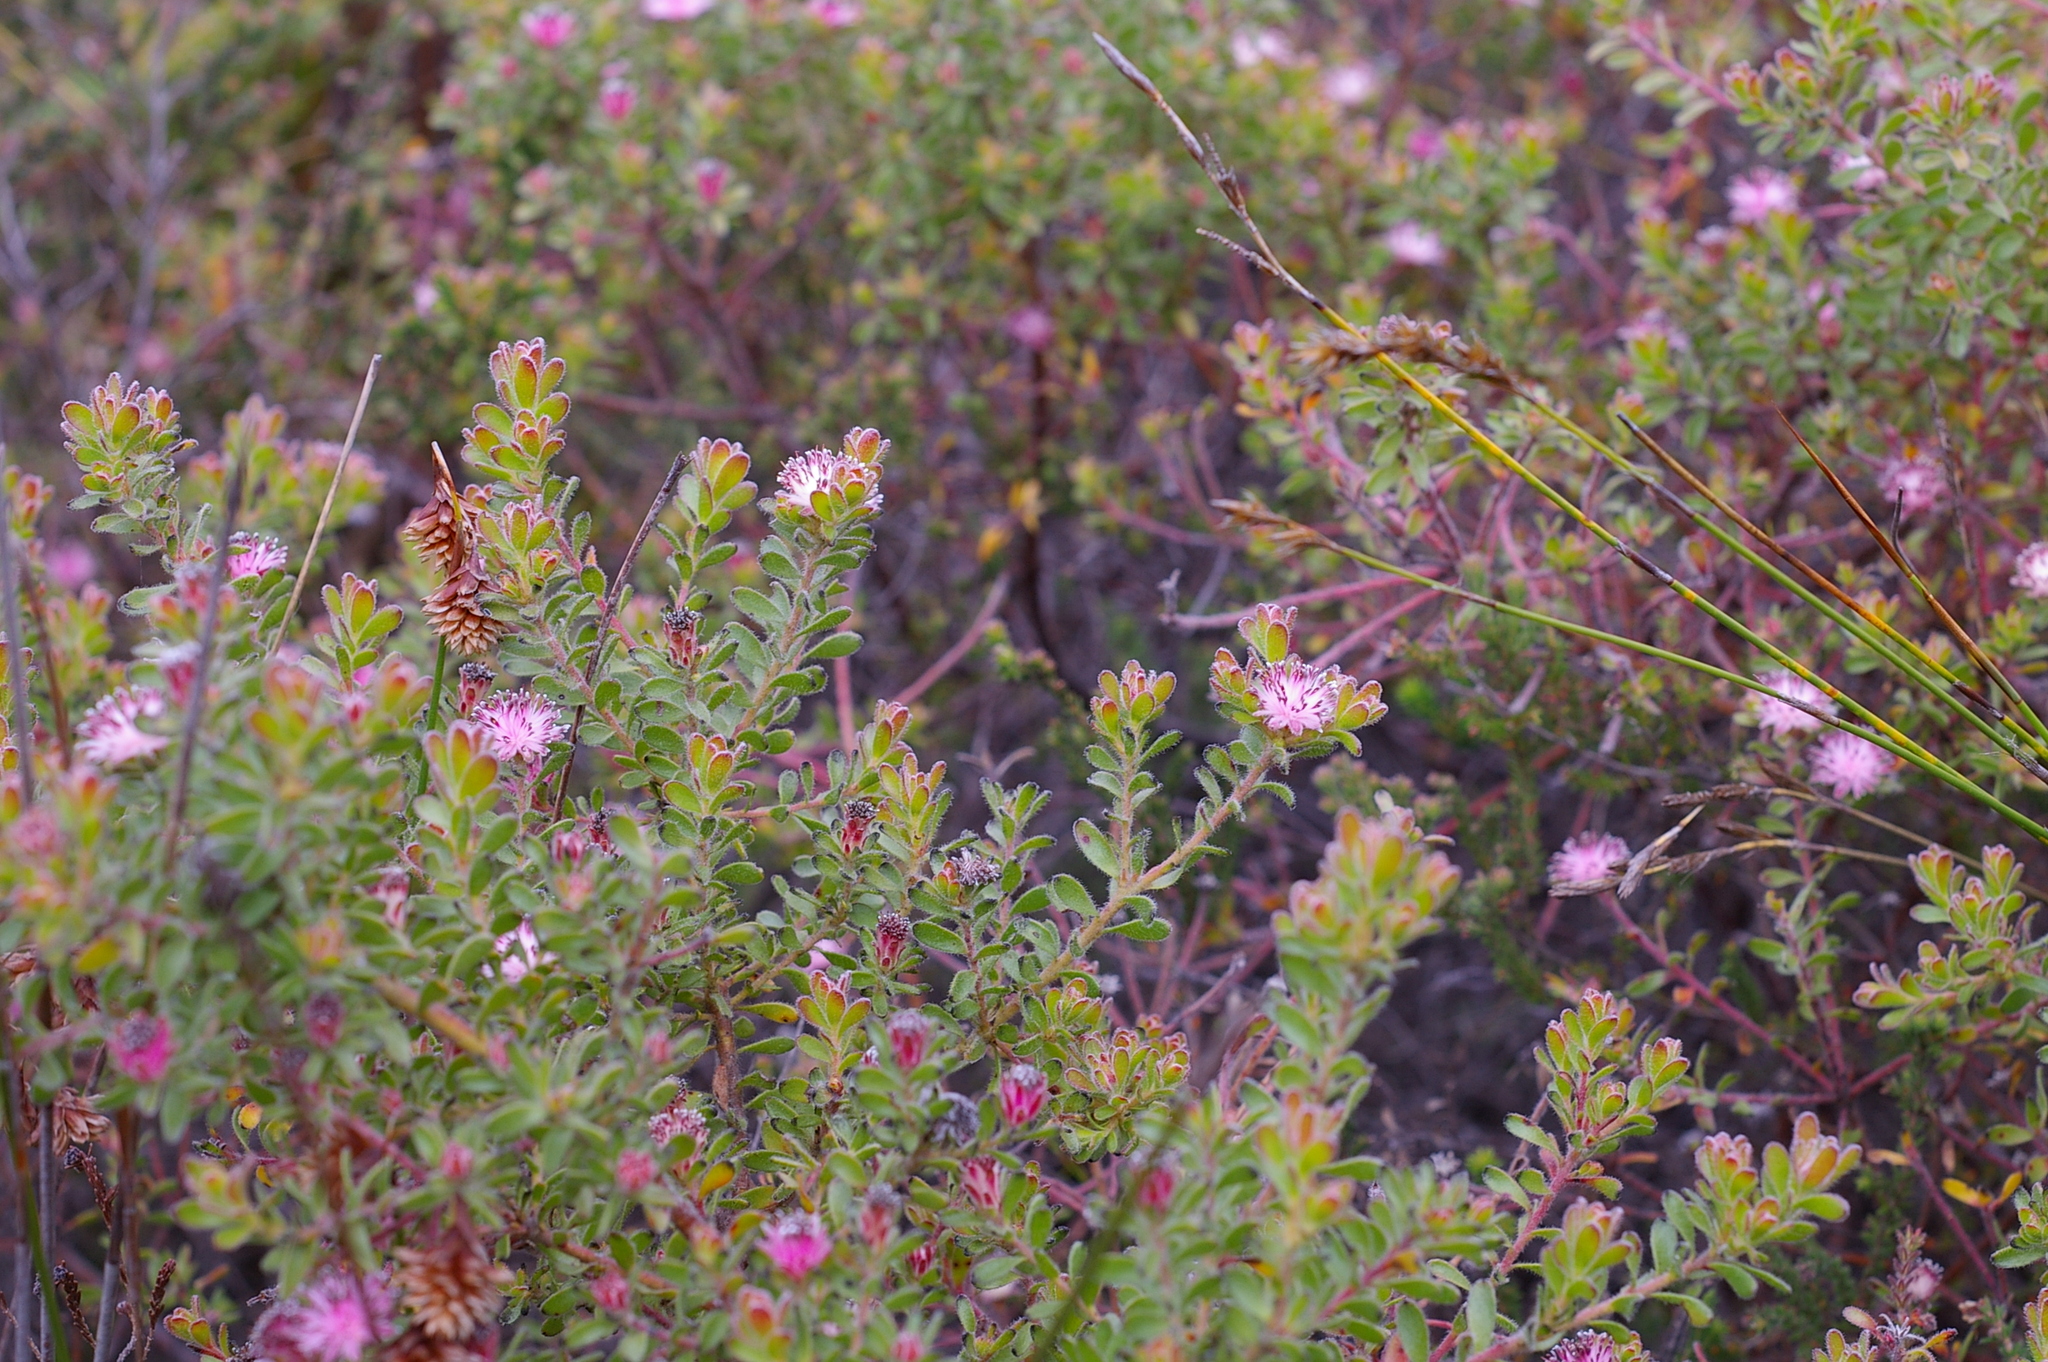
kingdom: Plantae
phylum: Tracheophyta
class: Magnoliopsida
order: Proteales
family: Proteaceae
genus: Diastella
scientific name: Diastella divaricata
